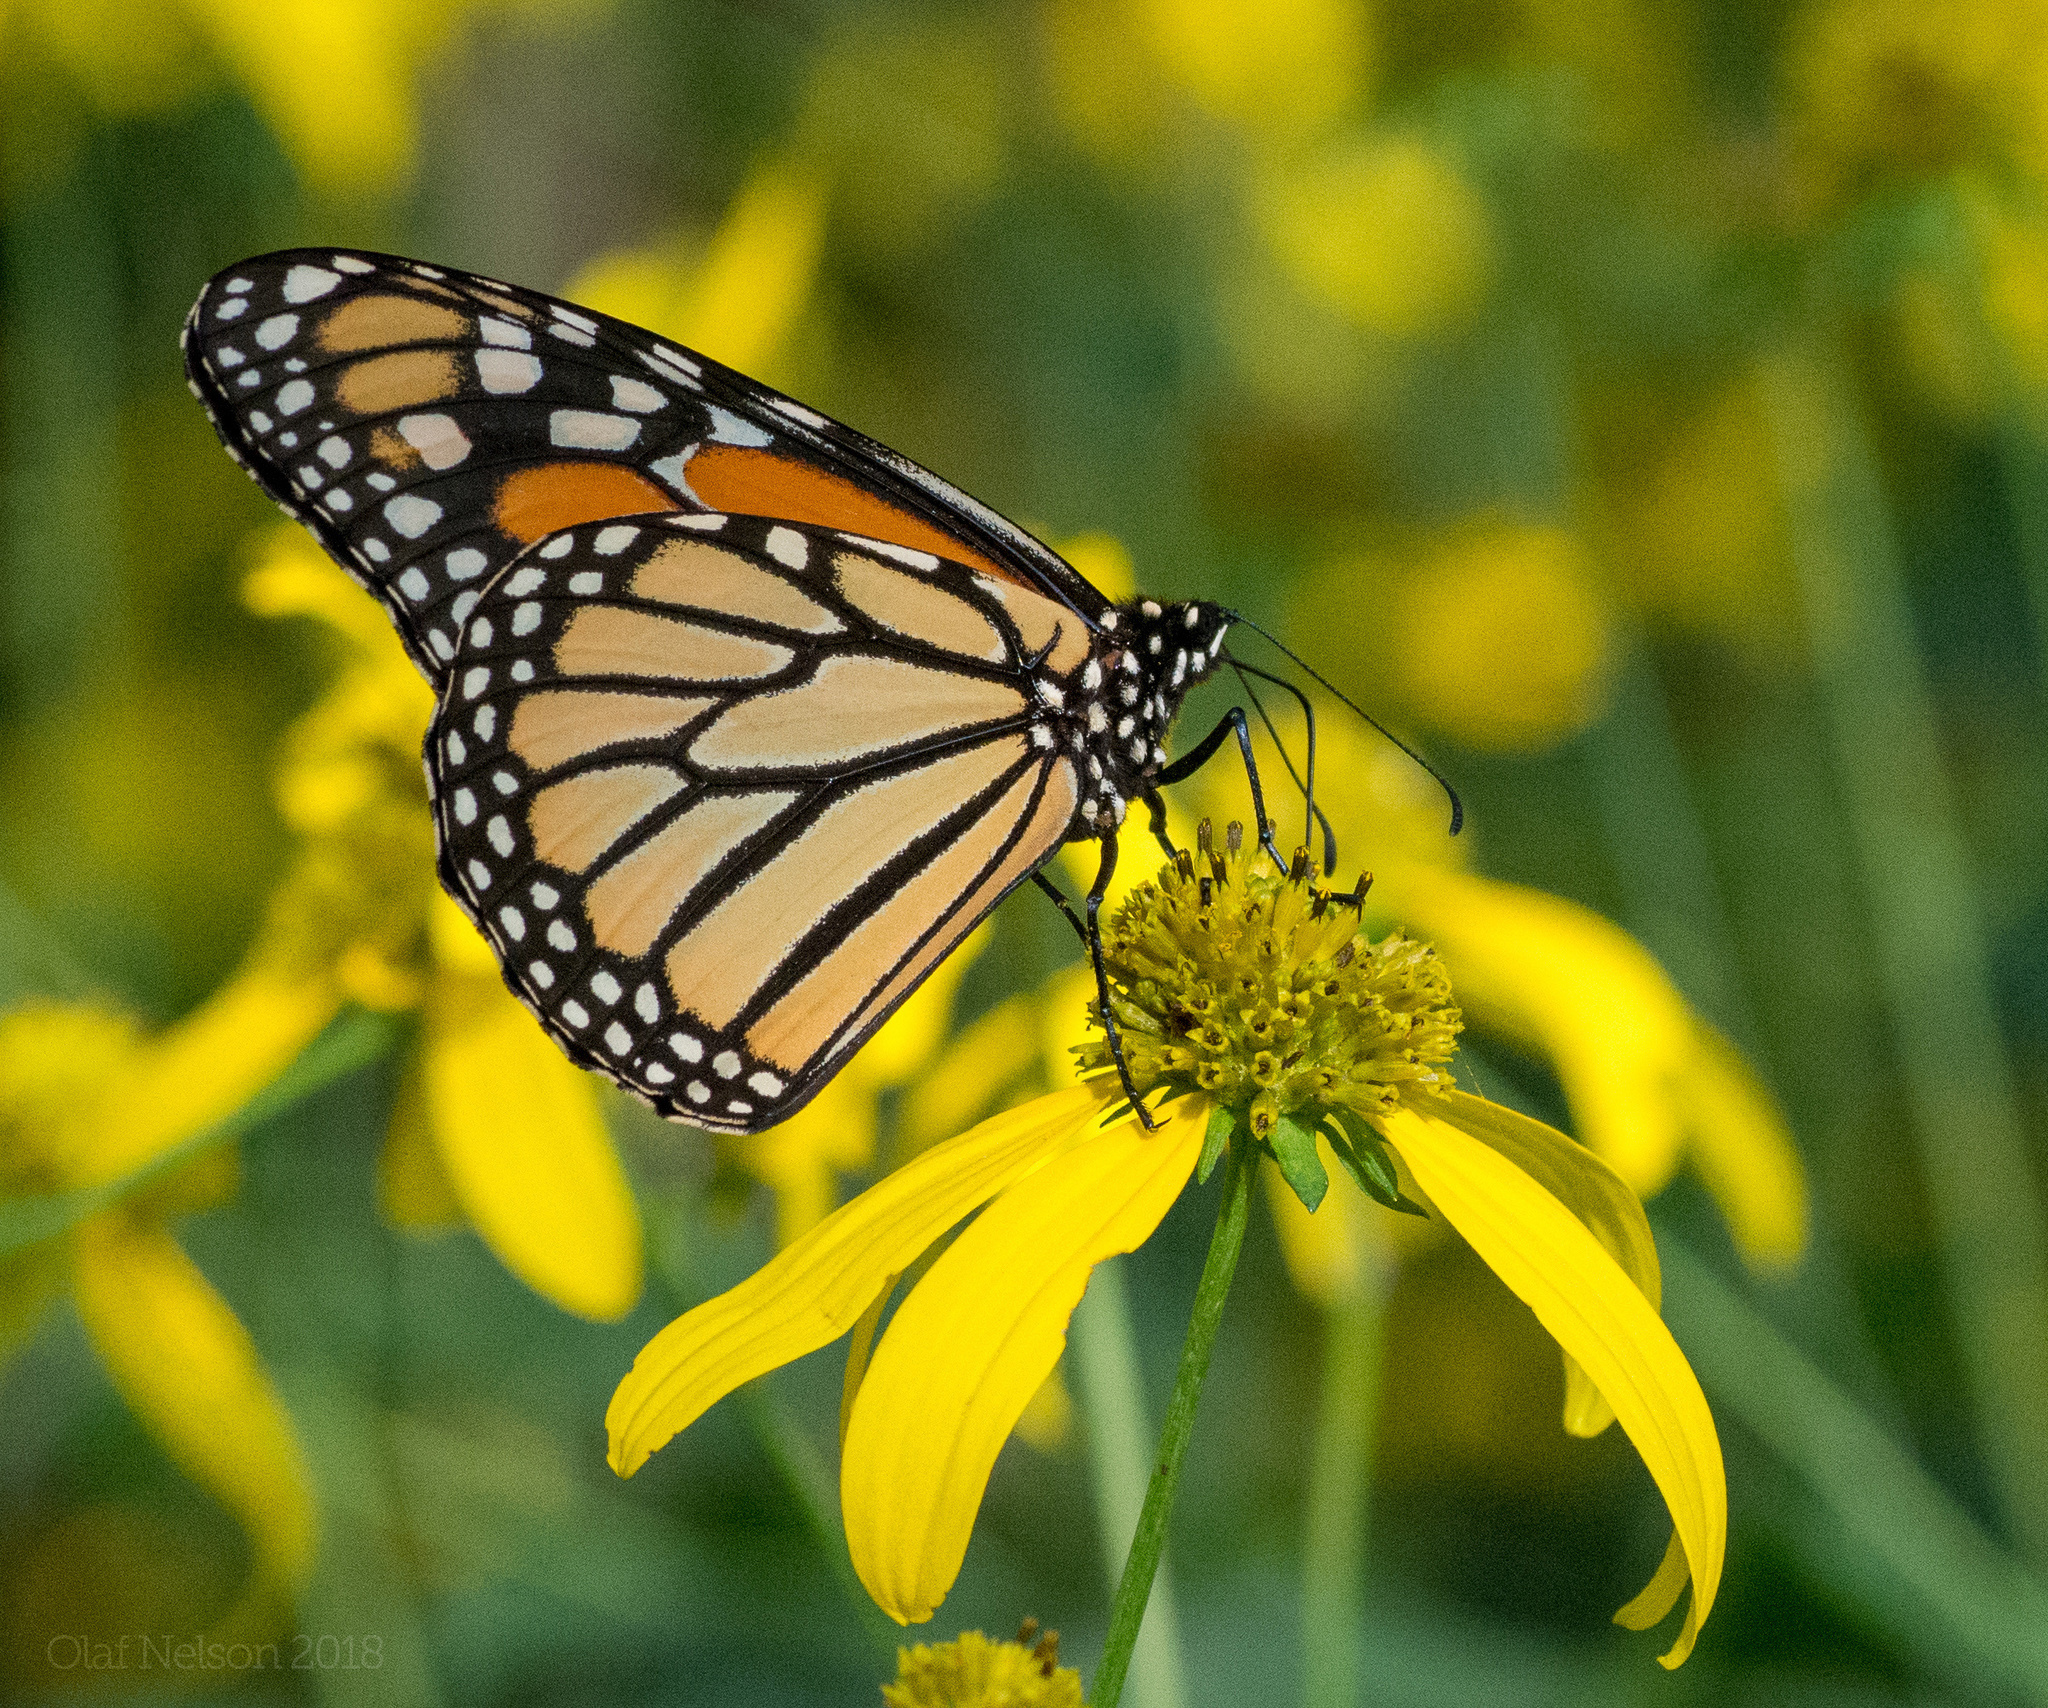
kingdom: Animalia
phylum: Arthropoda
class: Insecta
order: Lepidoptera
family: Nymphalidae
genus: Danaus
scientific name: Danaus plexippus
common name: Monarch
